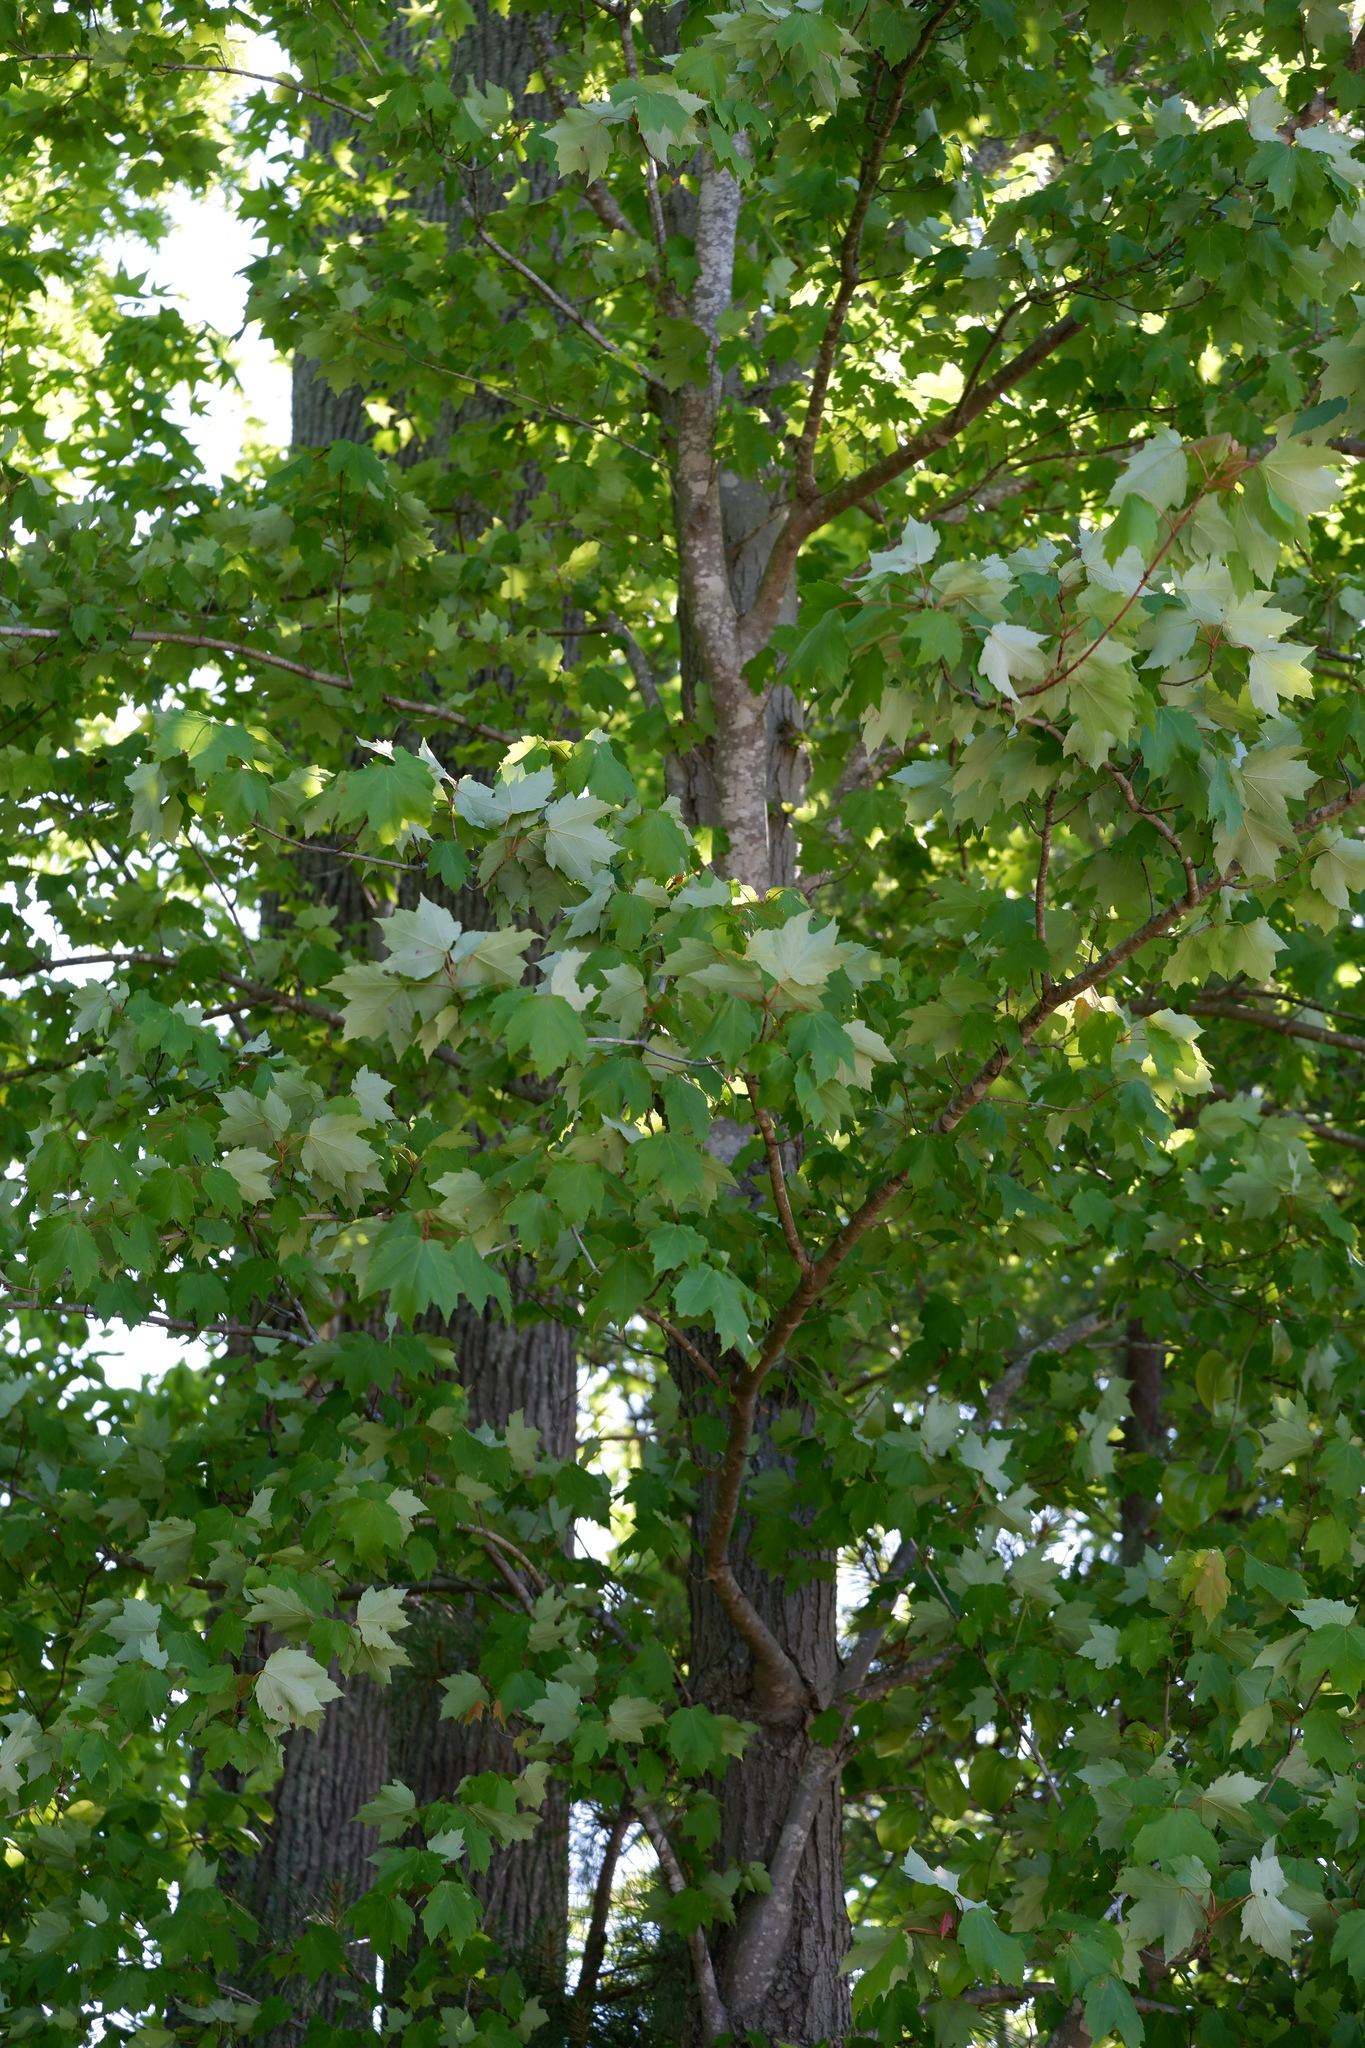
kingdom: Plantae
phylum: Tracheophyta
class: Magnoliopsida
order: Sapindales
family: Sapindaceae
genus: Acer
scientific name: Acer rubrum
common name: Red maple
